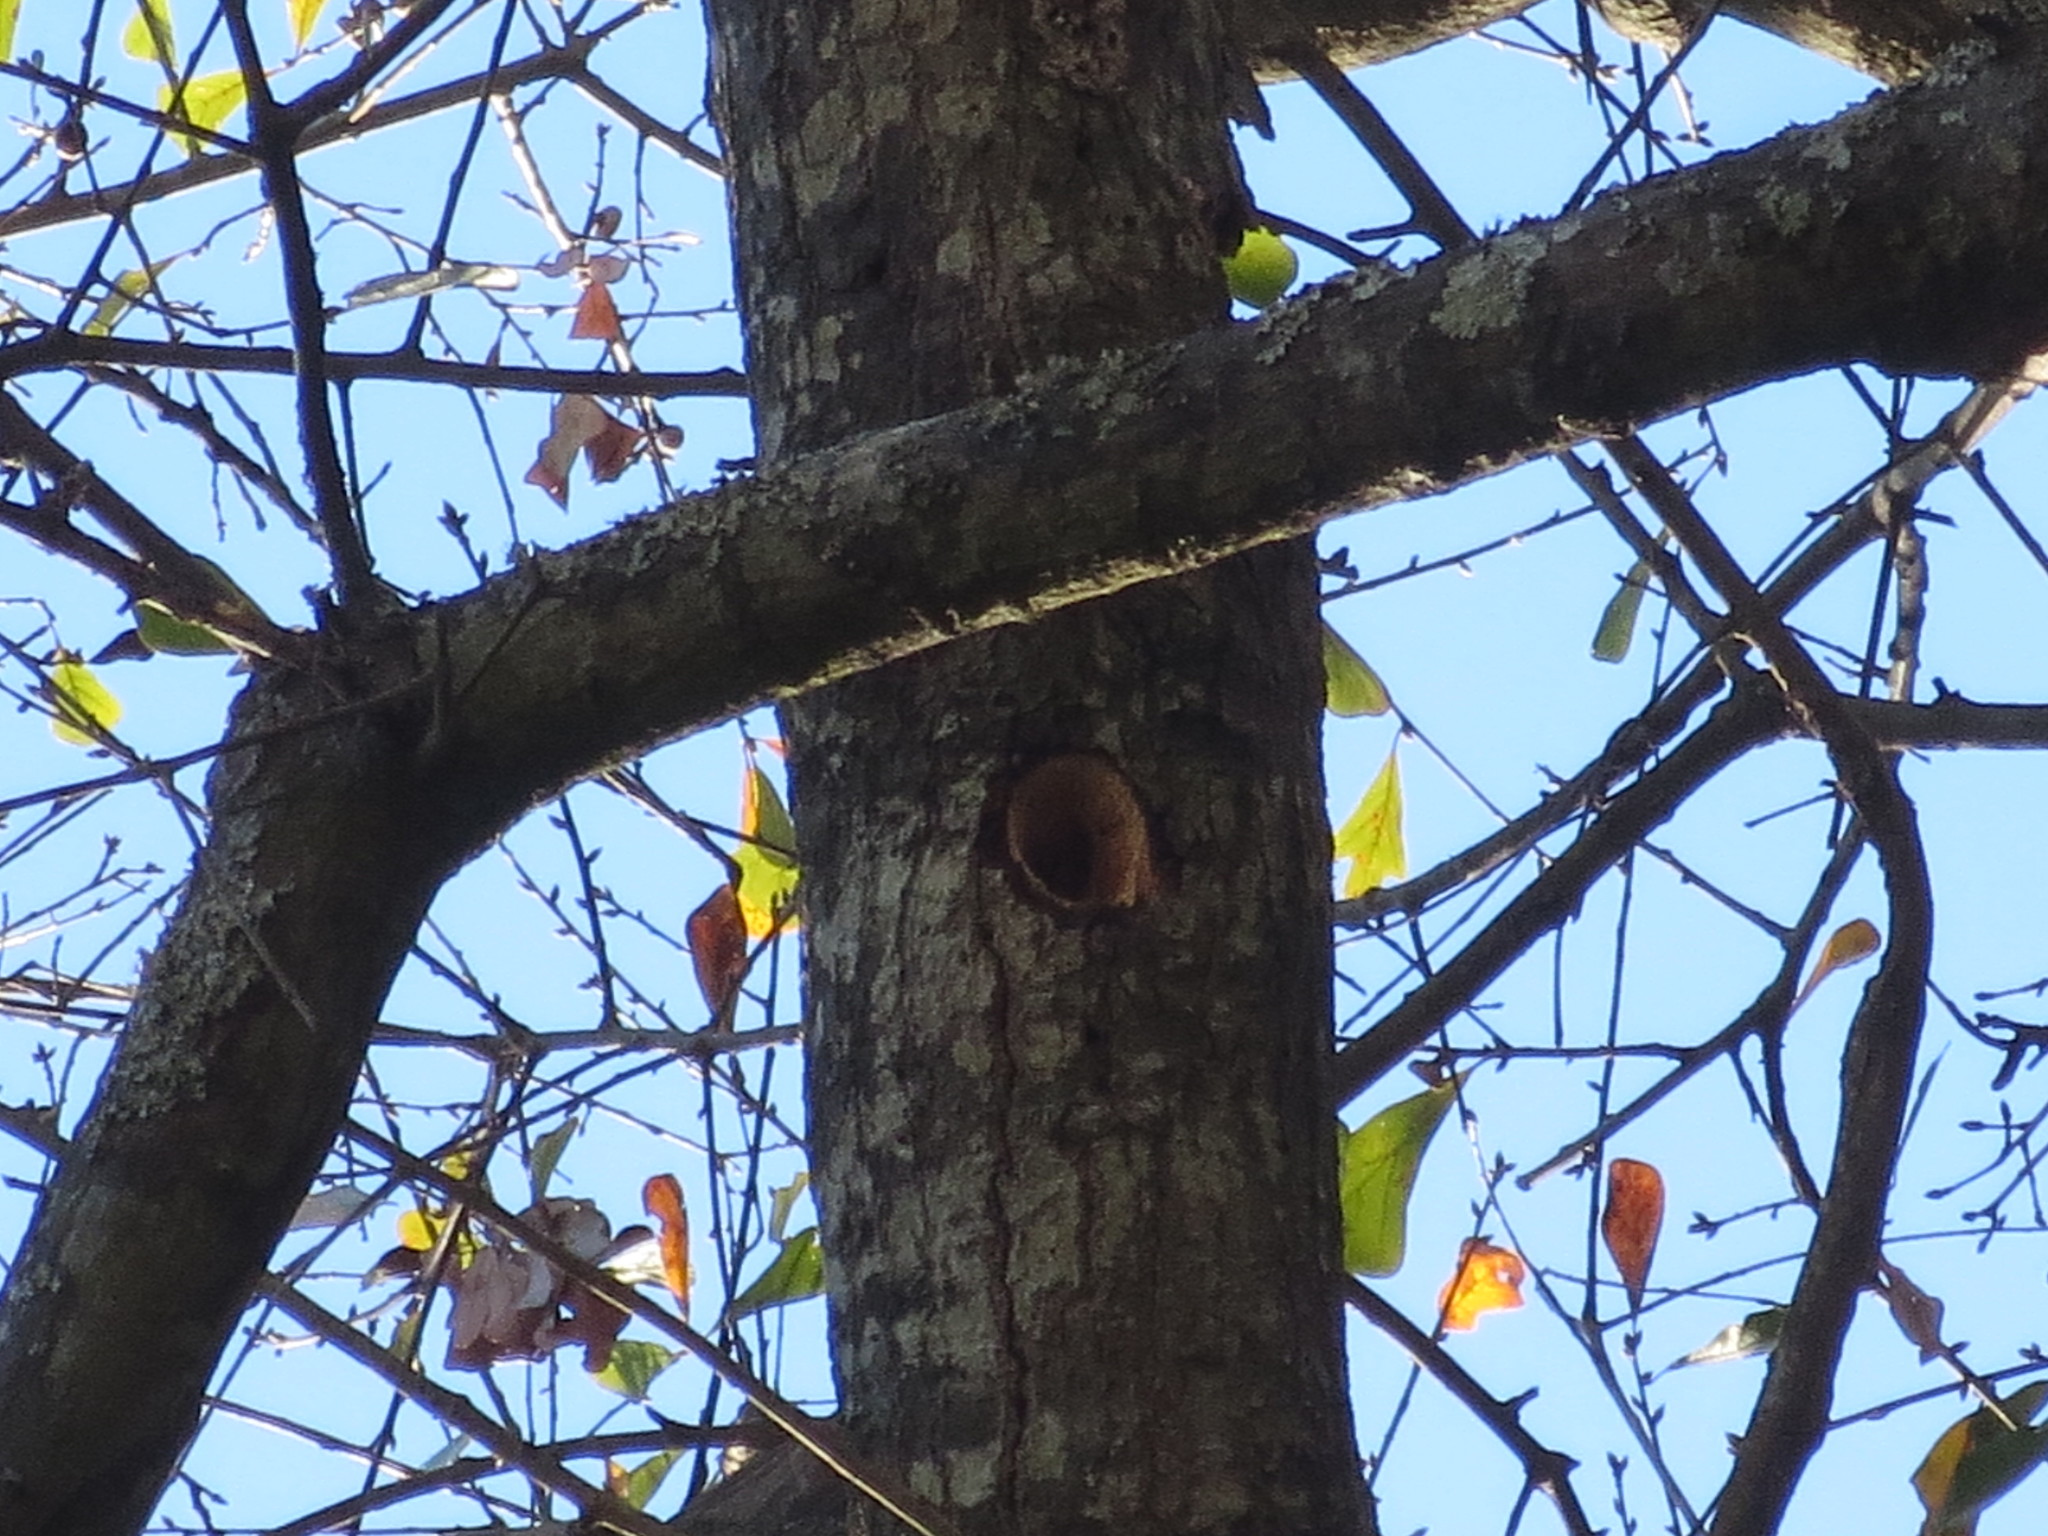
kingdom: Animalia
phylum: Chordata
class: Aves
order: Piciformes
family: Picidae
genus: Melanerpes
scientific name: Melanerpes carolinus
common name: Red-bellied woodpecker
